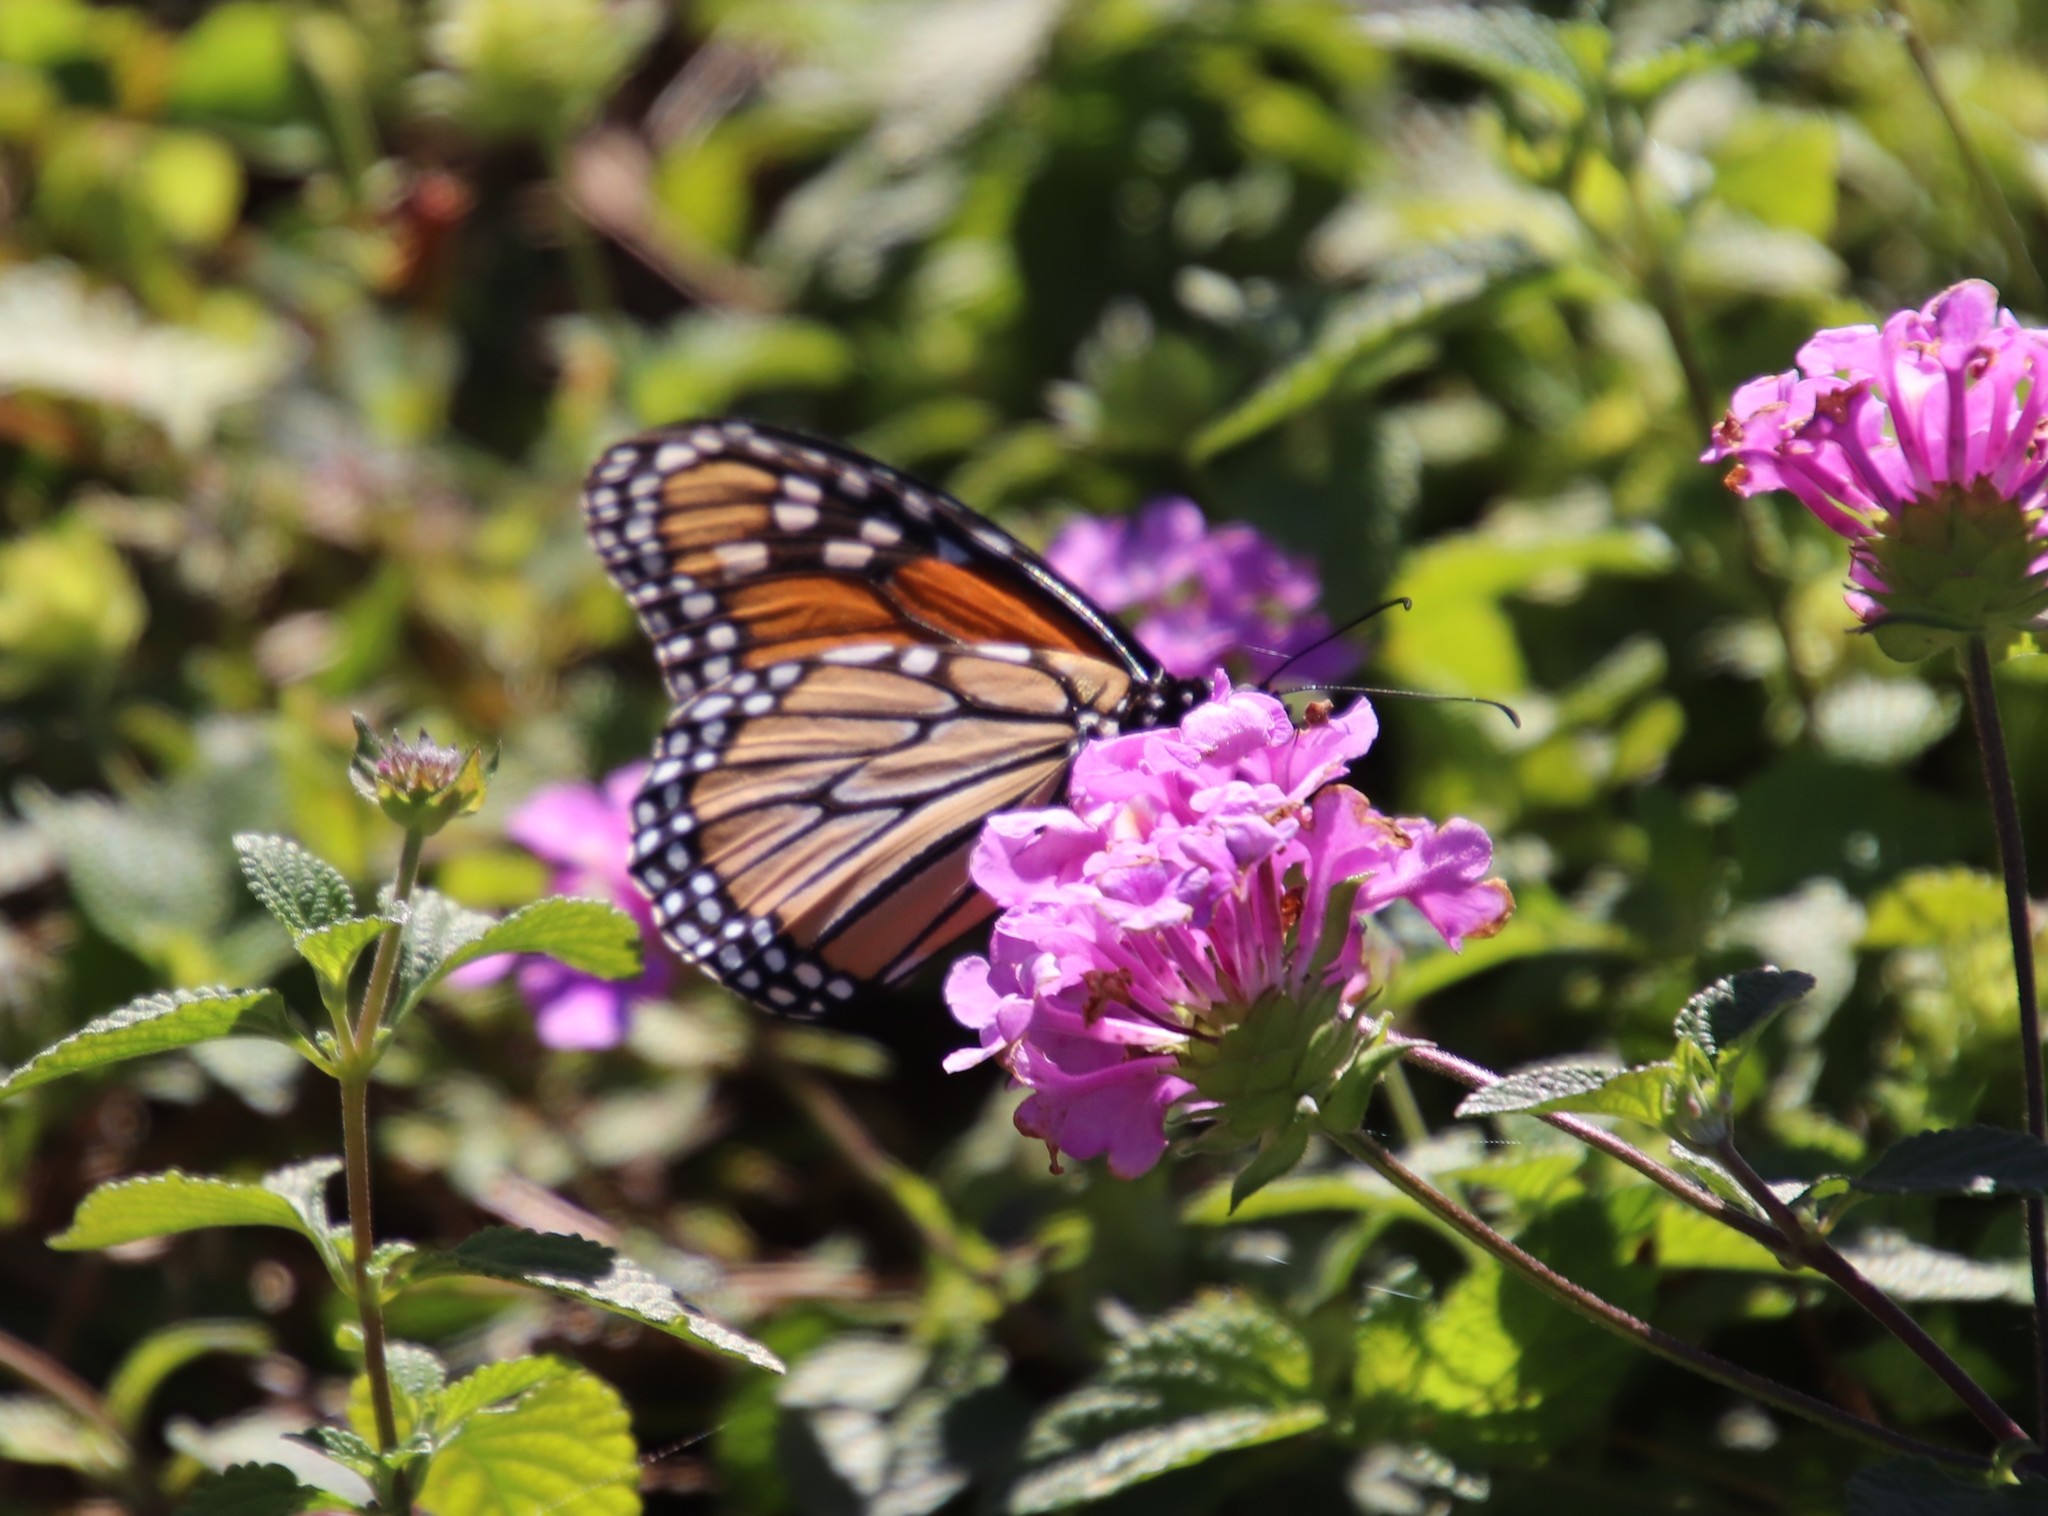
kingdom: Animalia
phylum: Arthropoda
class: Insecta
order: Lepidoptera
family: Nymphalidae
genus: Danaus
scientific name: Danaus plexippus
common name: Monarch
